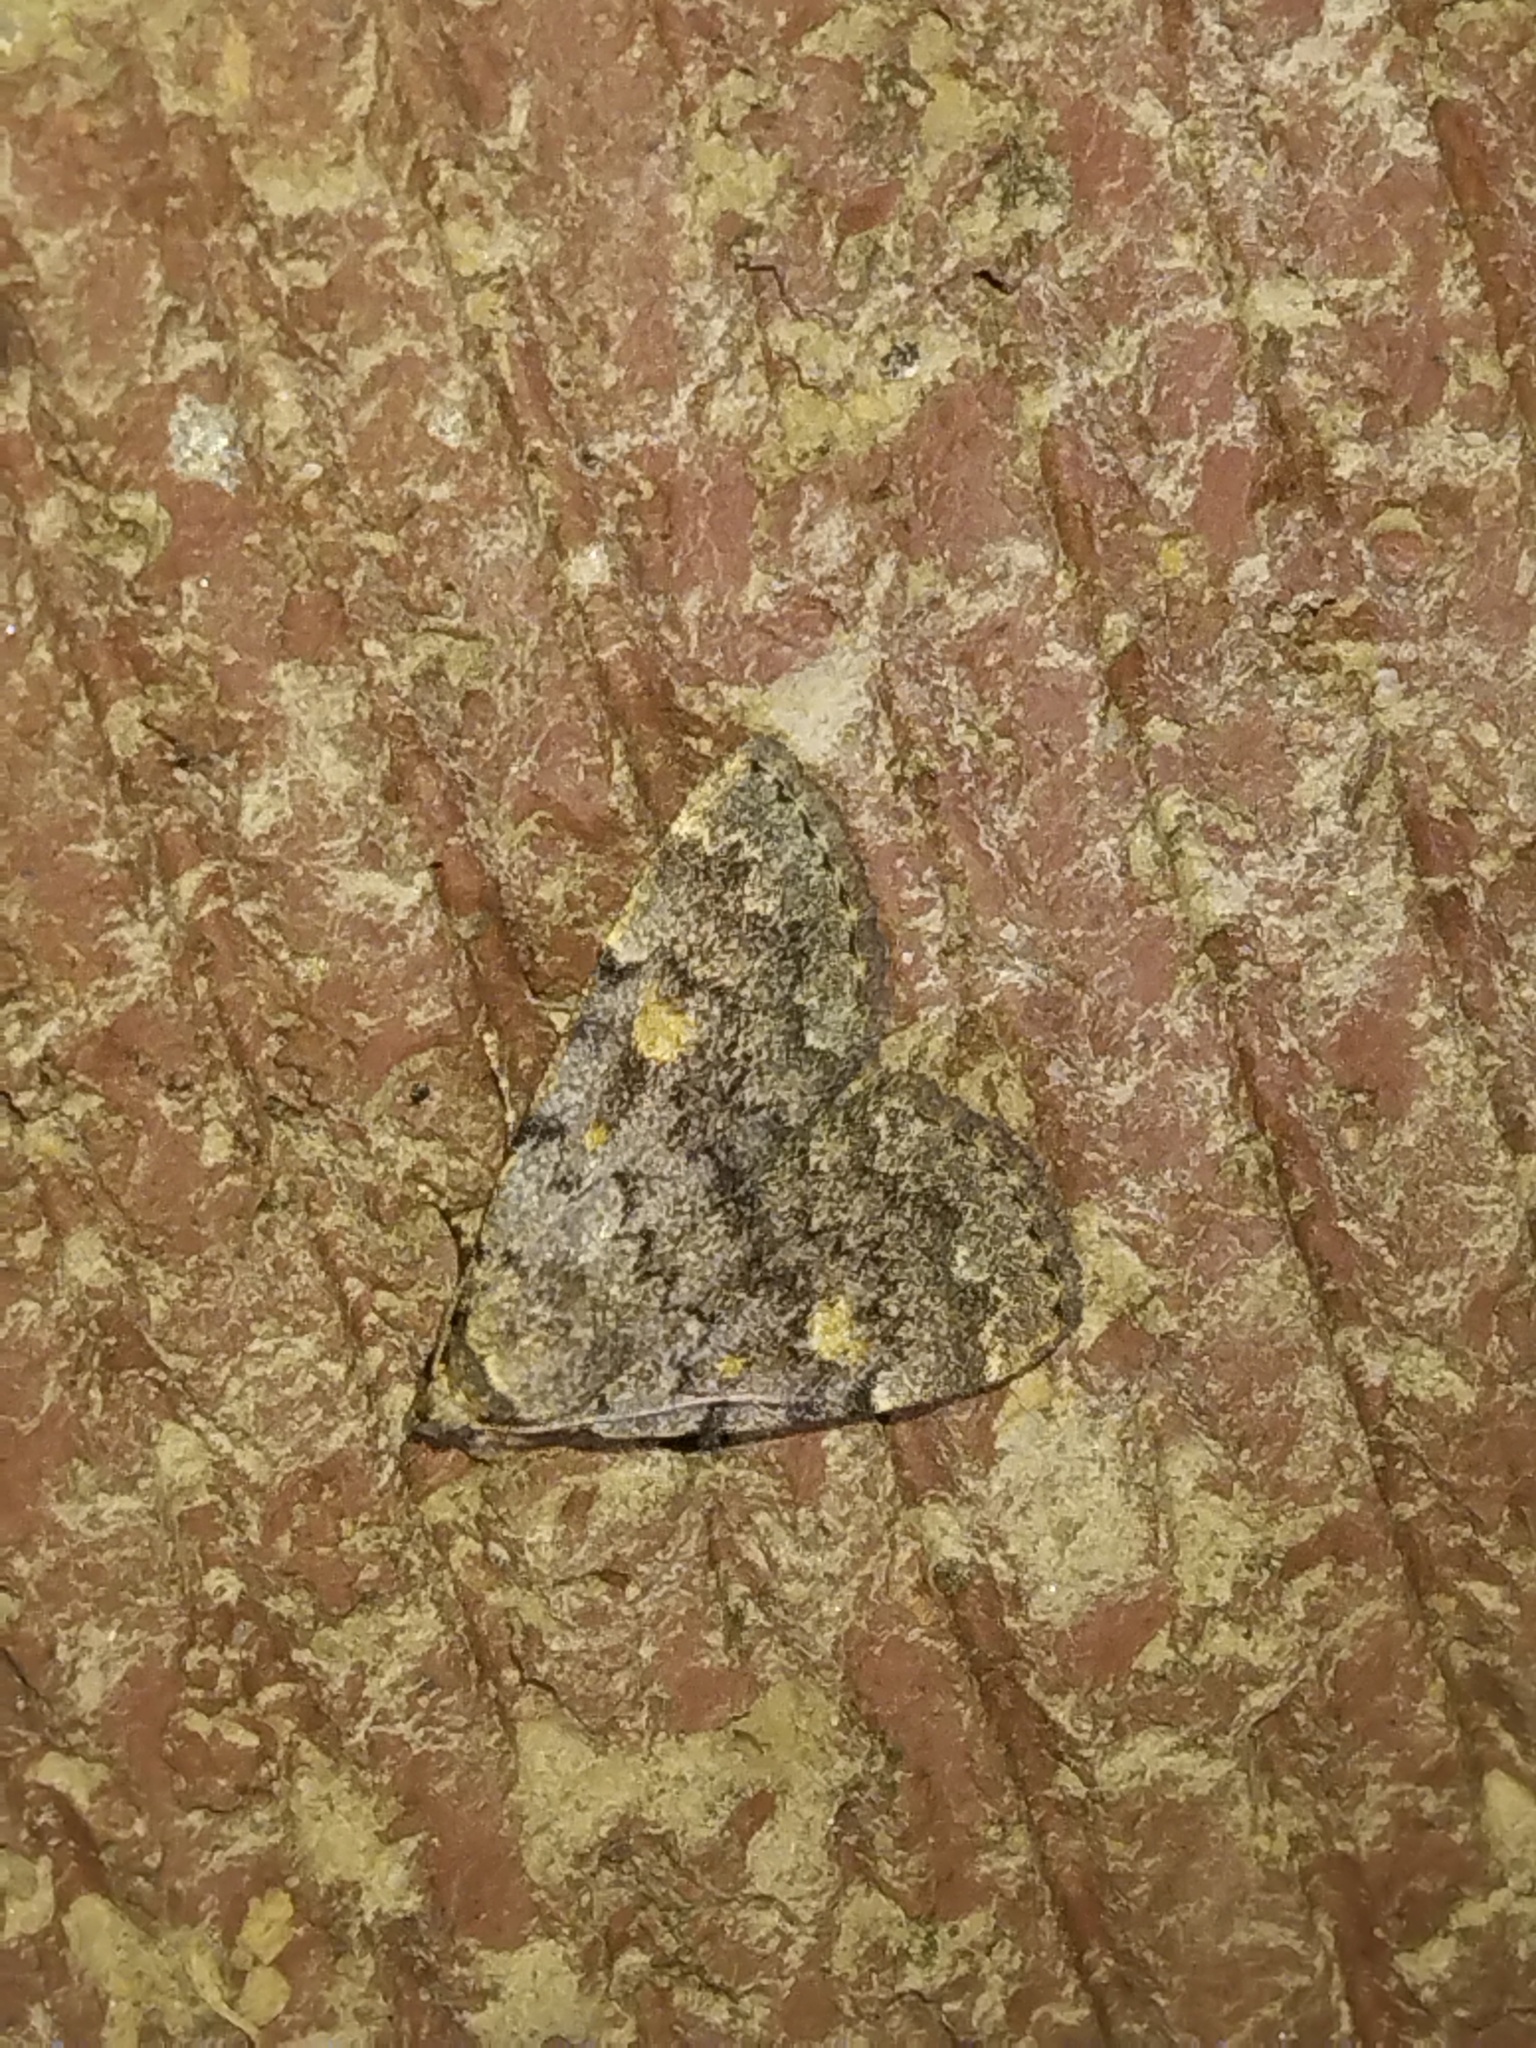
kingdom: Animalia
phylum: Arthropoda
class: Insecta
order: Lepidoptera
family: Erebidae
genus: Idia
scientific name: Idia aemula
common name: Common idia moth
